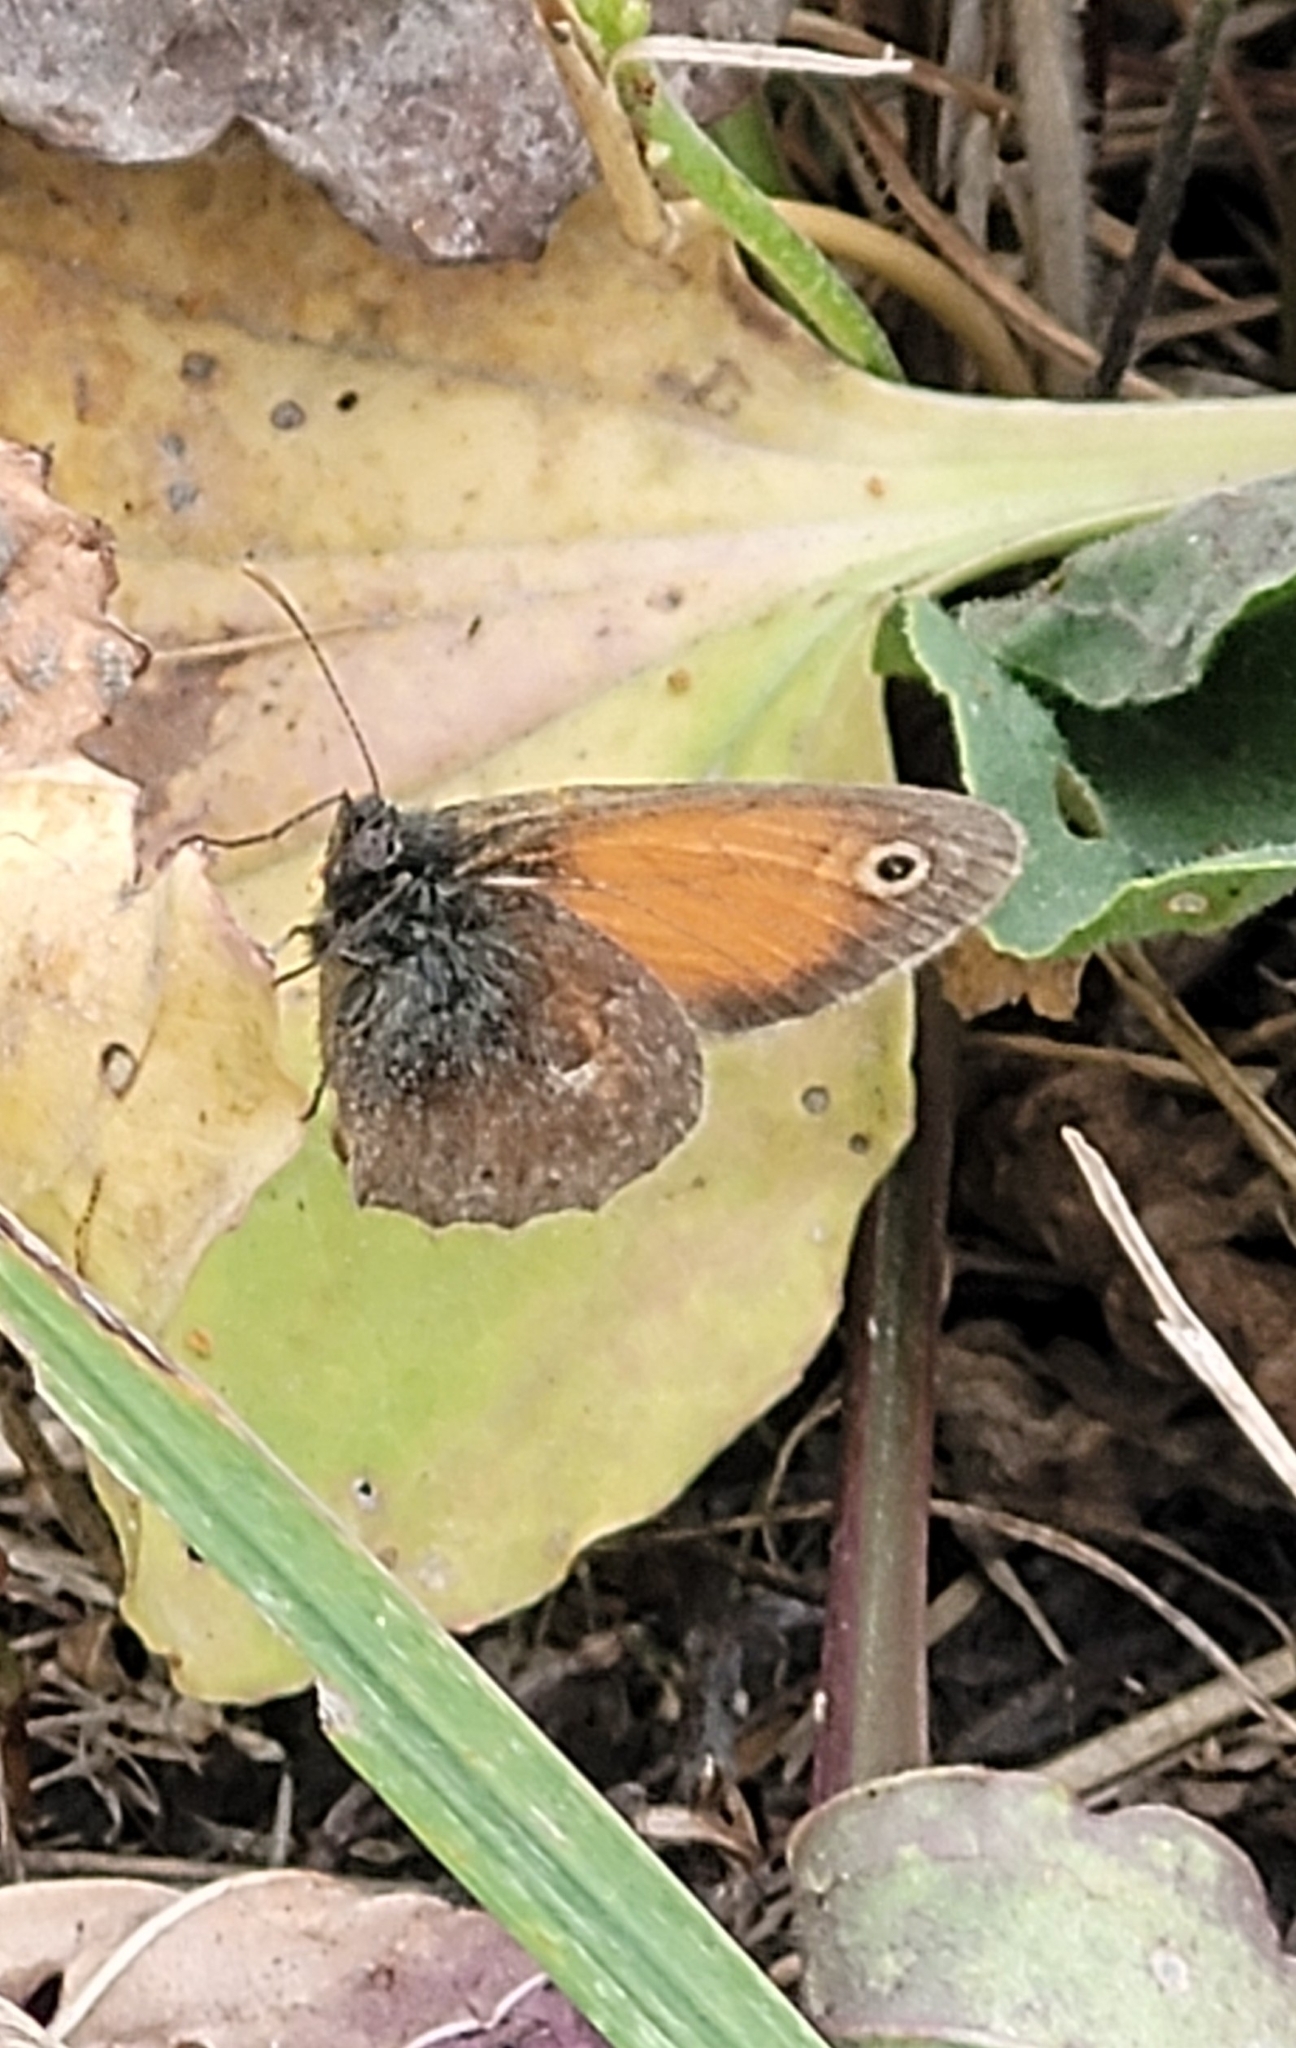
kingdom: Animalia
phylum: Arthropoda
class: Insecta
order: Lepidoptera
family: Nymphalidae
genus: Coenonympha
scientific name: Coenonympha pamphilus
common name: Small heath
